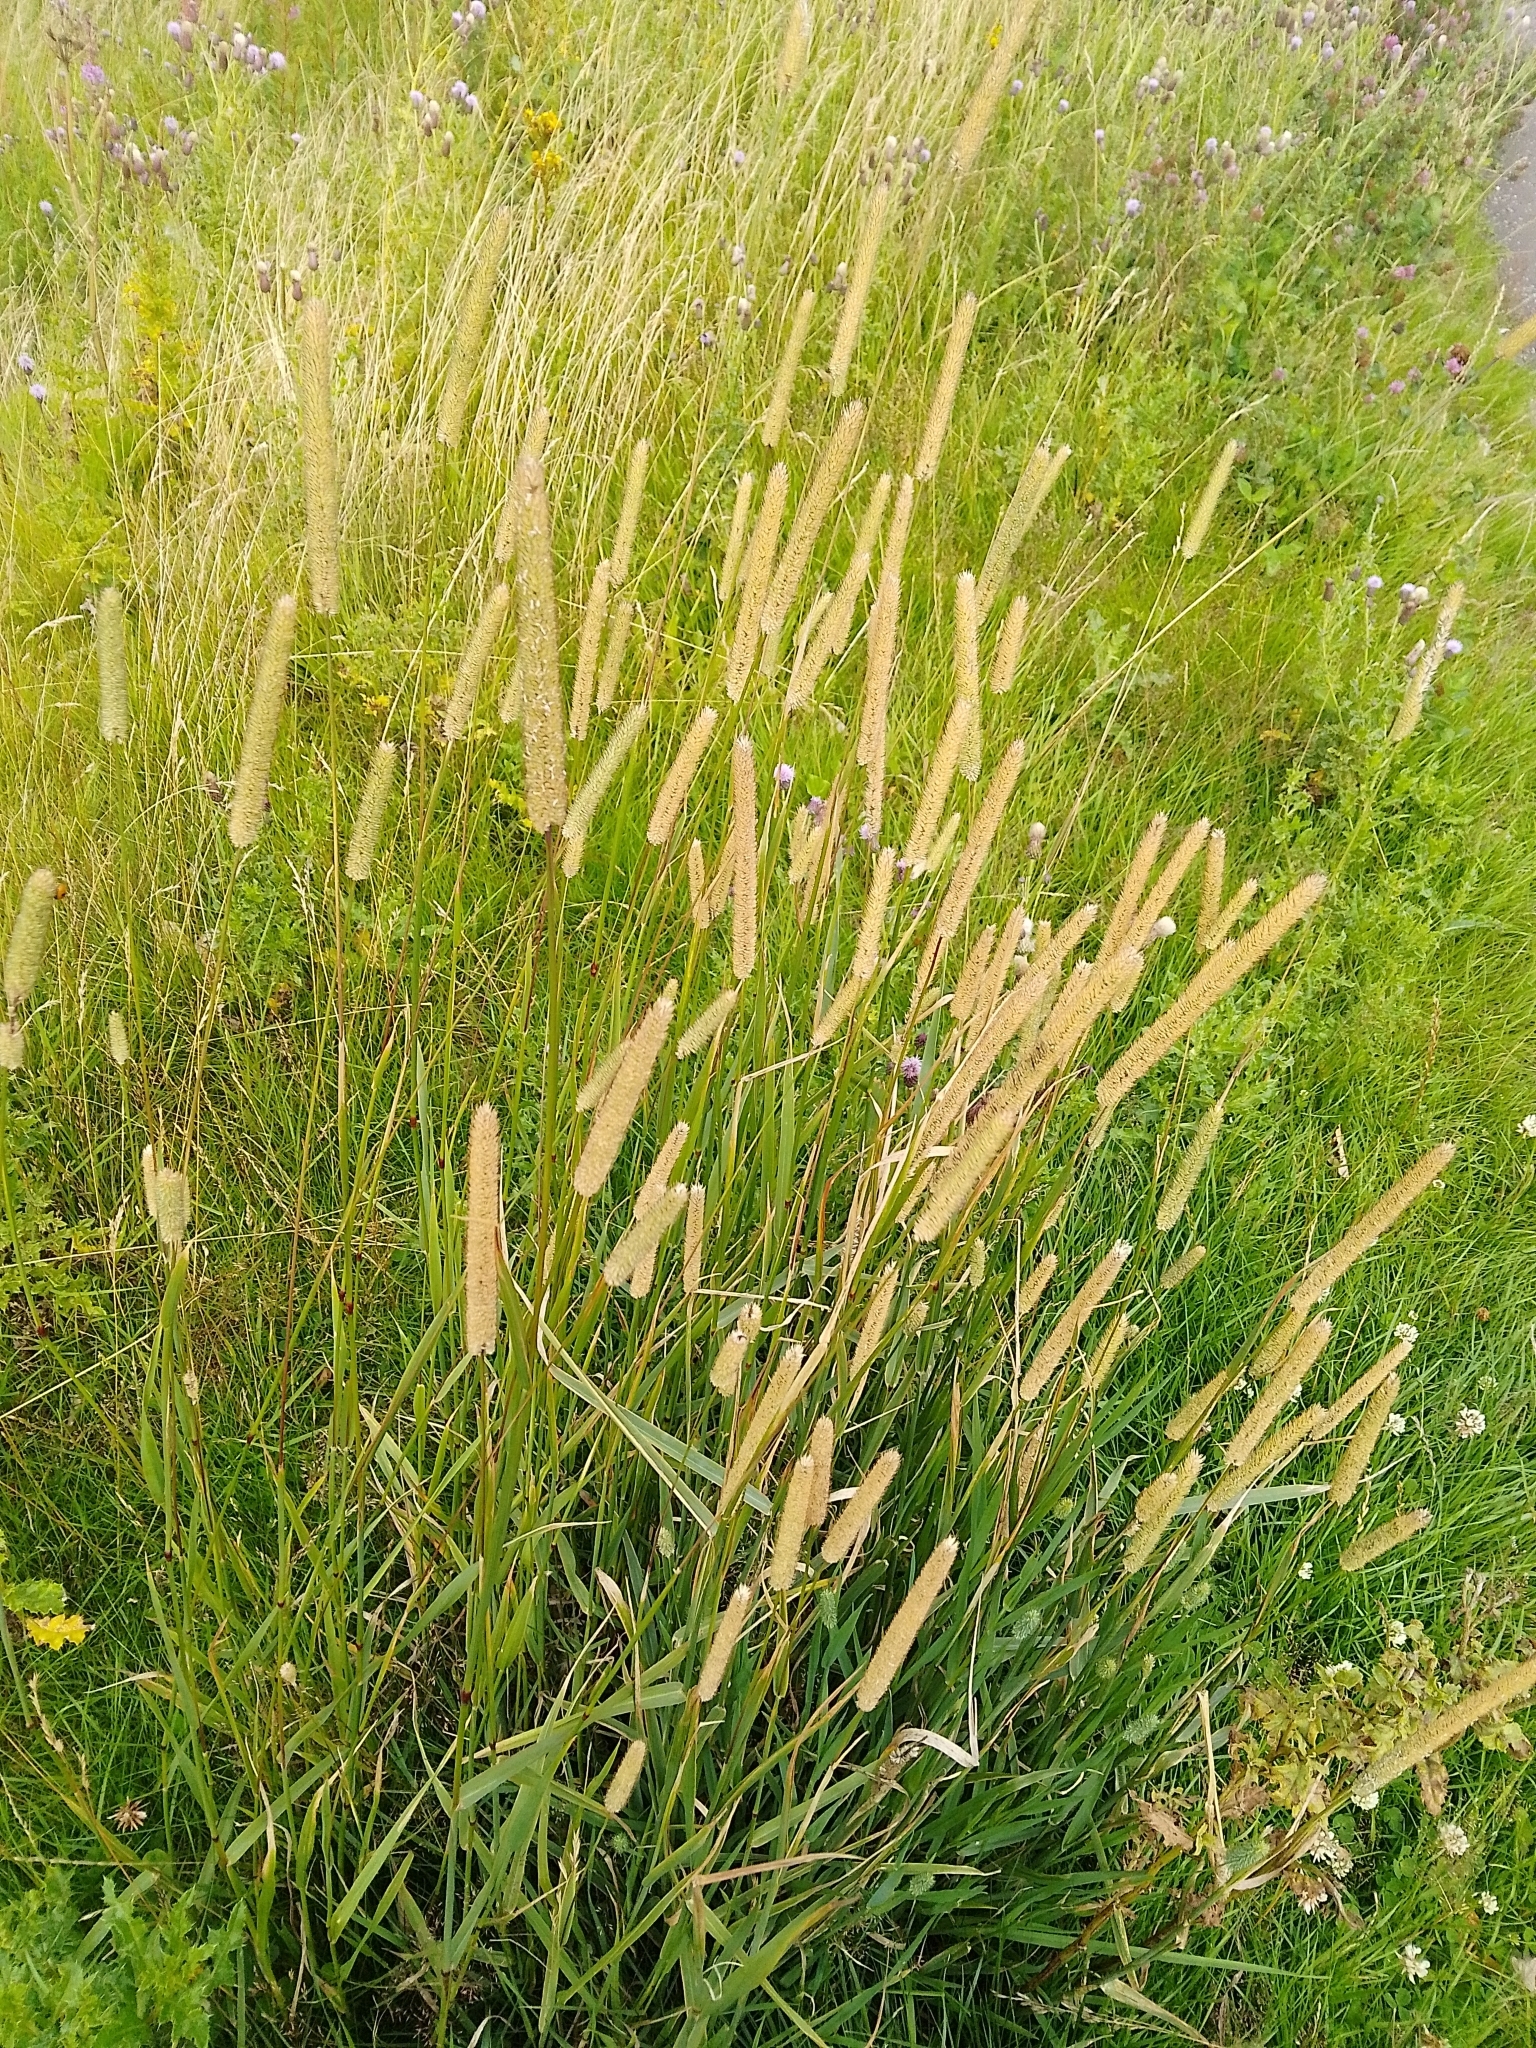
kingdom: Plantae
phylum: Tracheophyta
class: Liliopsida
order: Poales
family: Poaceae
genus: Phleum
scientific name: Phleum pratense
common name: Timothy grass
